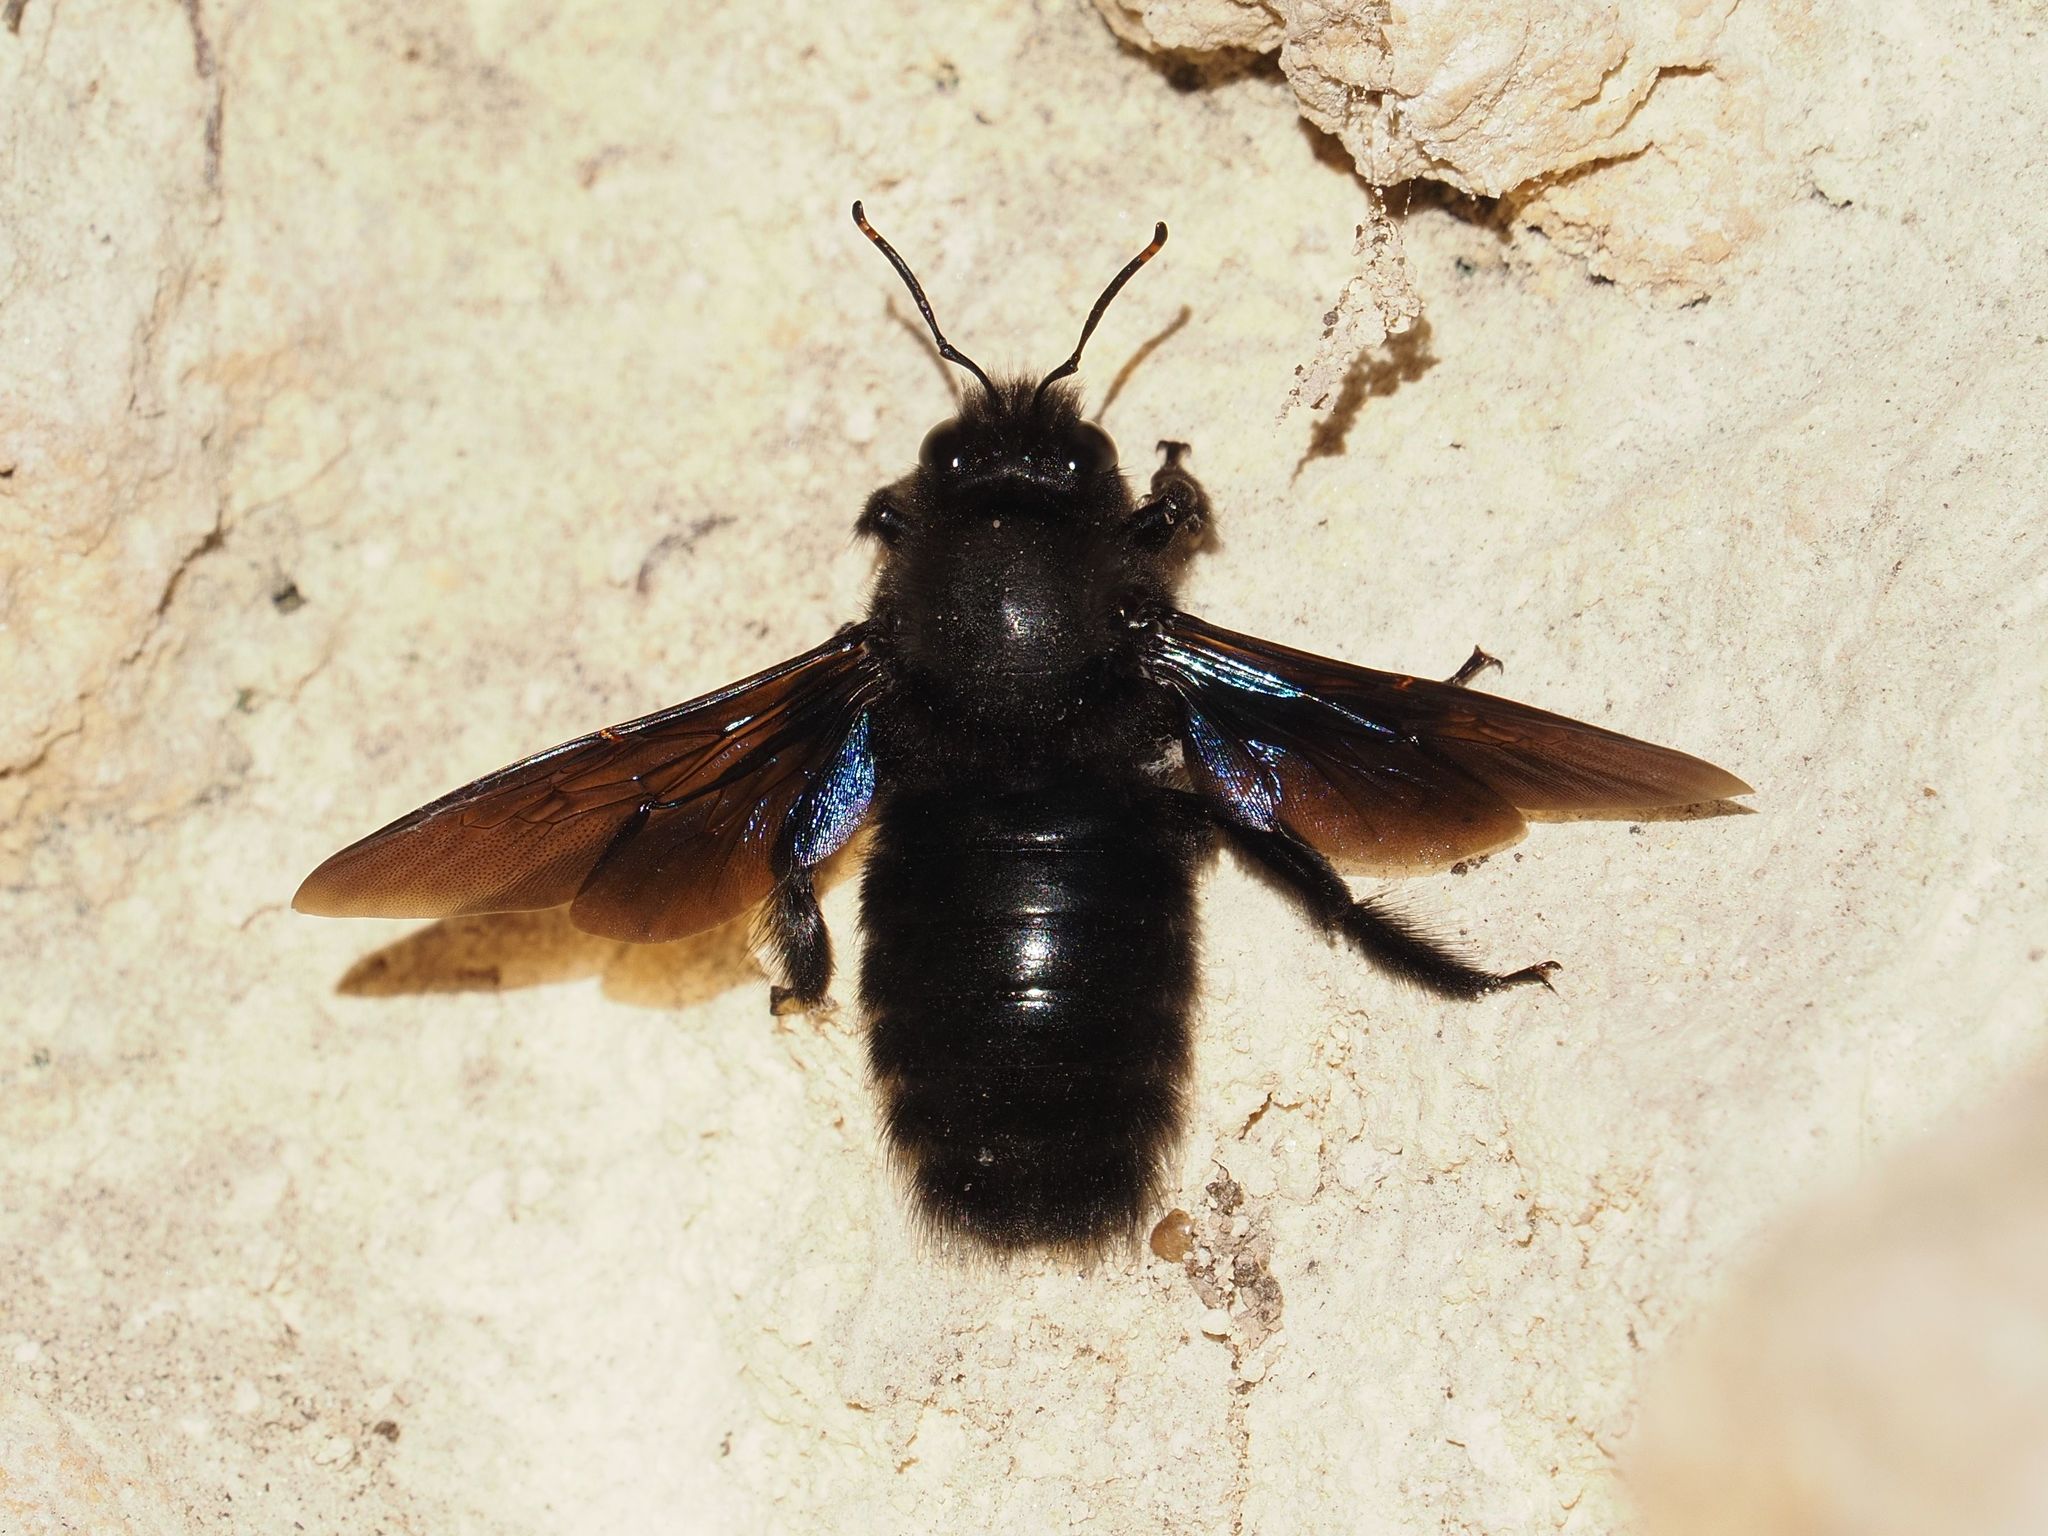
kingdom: Animalia
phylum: Arthropoda
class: Insecta
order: Hymenoptera
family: Apidae
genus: Xylocopa
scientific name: Xylocopa violacea
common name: Violet carpenter bee
